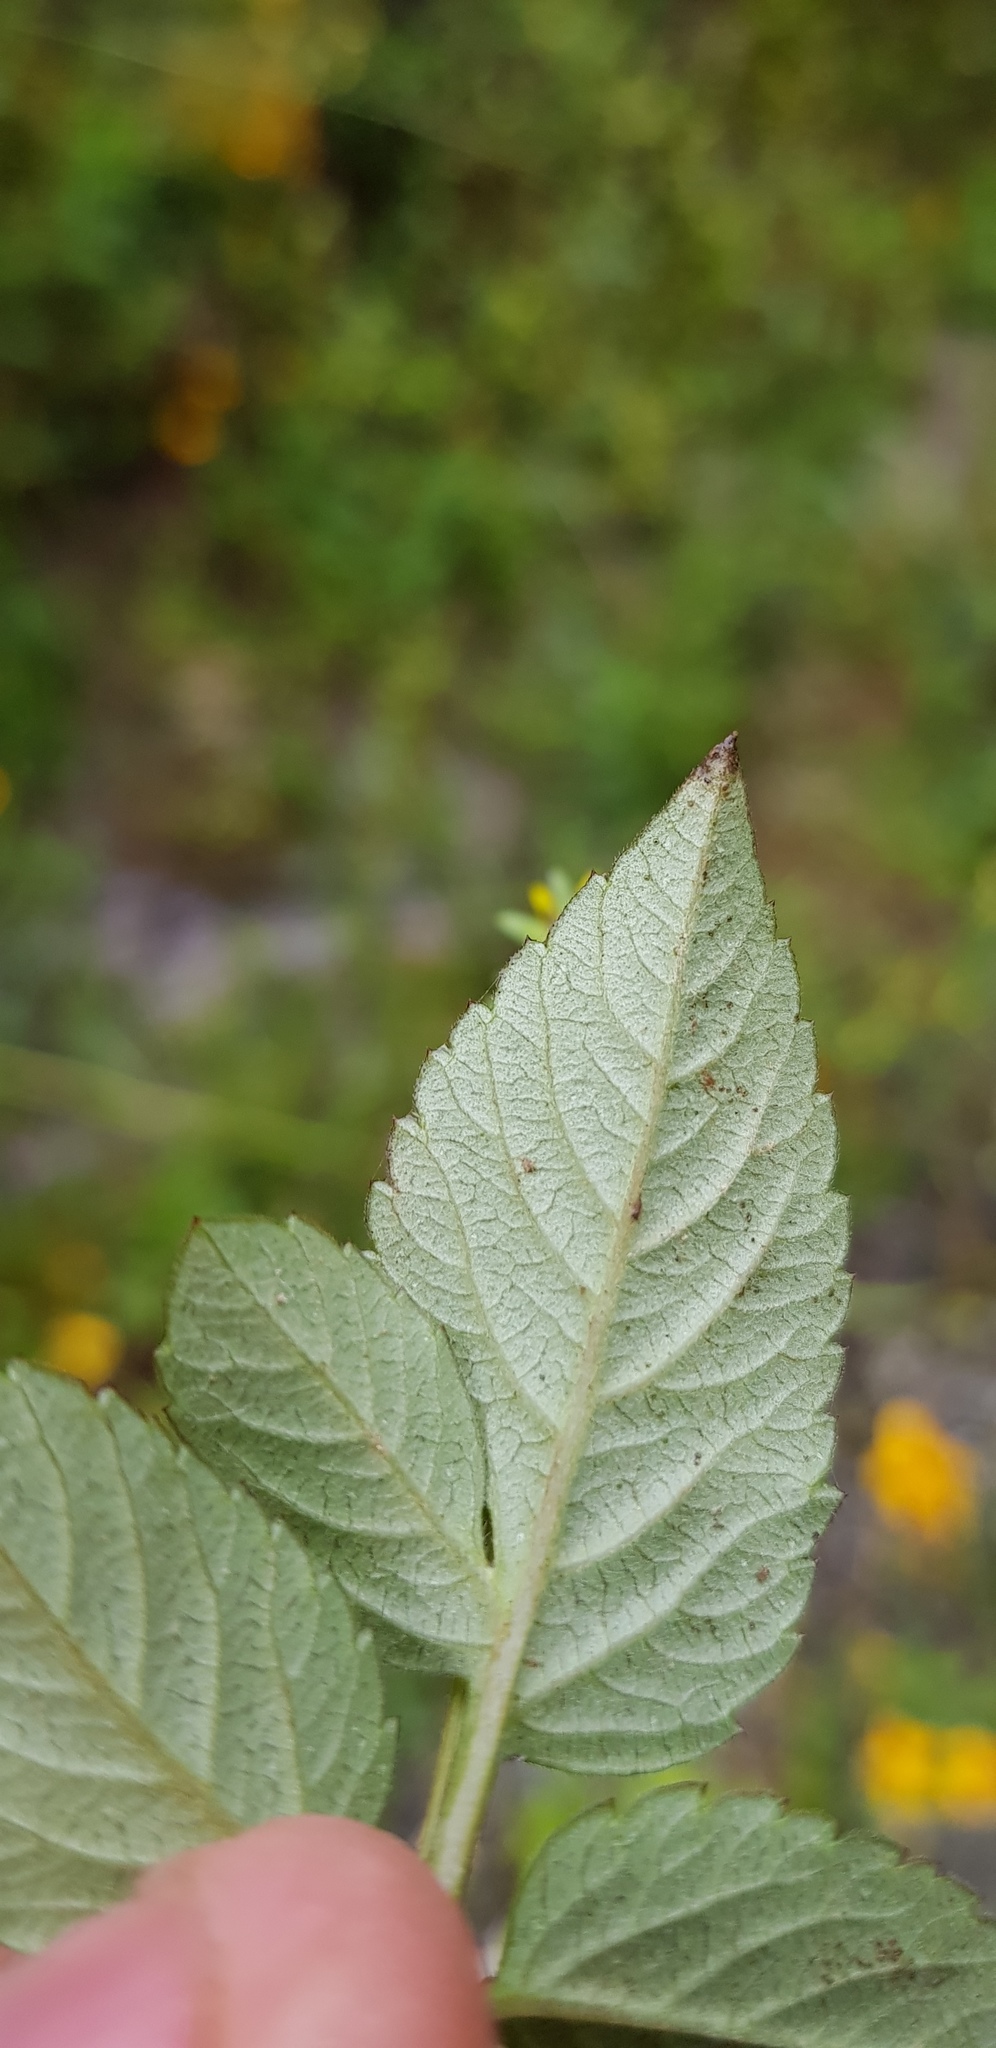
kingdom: Plantae
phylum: Tracheophyta
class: Magnoliopsida
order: Asterales
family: Asteraceae
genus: Bidens
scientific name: Bidens bicolor
